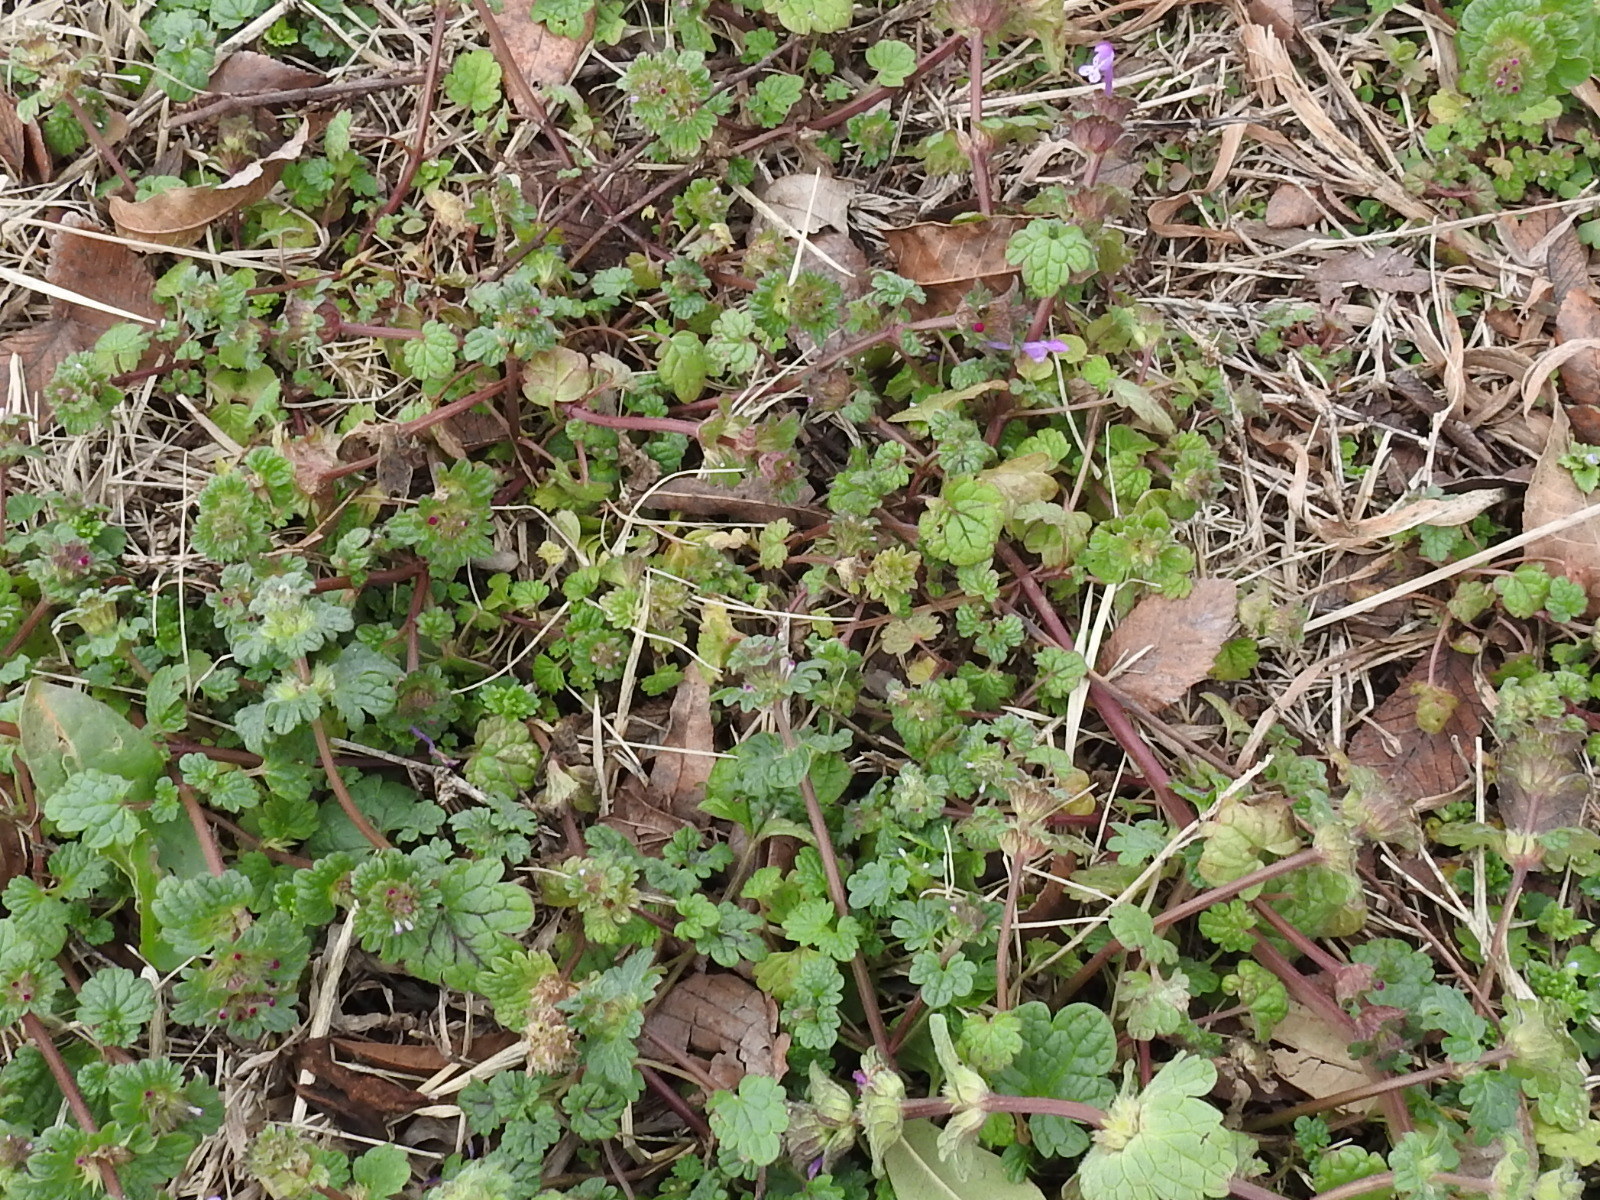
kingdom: Plantae
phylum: Tracheophyta
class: Magnoliopsida
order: Lamiales
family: Lamiaceae
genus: Lamium
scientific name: Lamium amplexicaule
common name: Henbit dead-nettle
